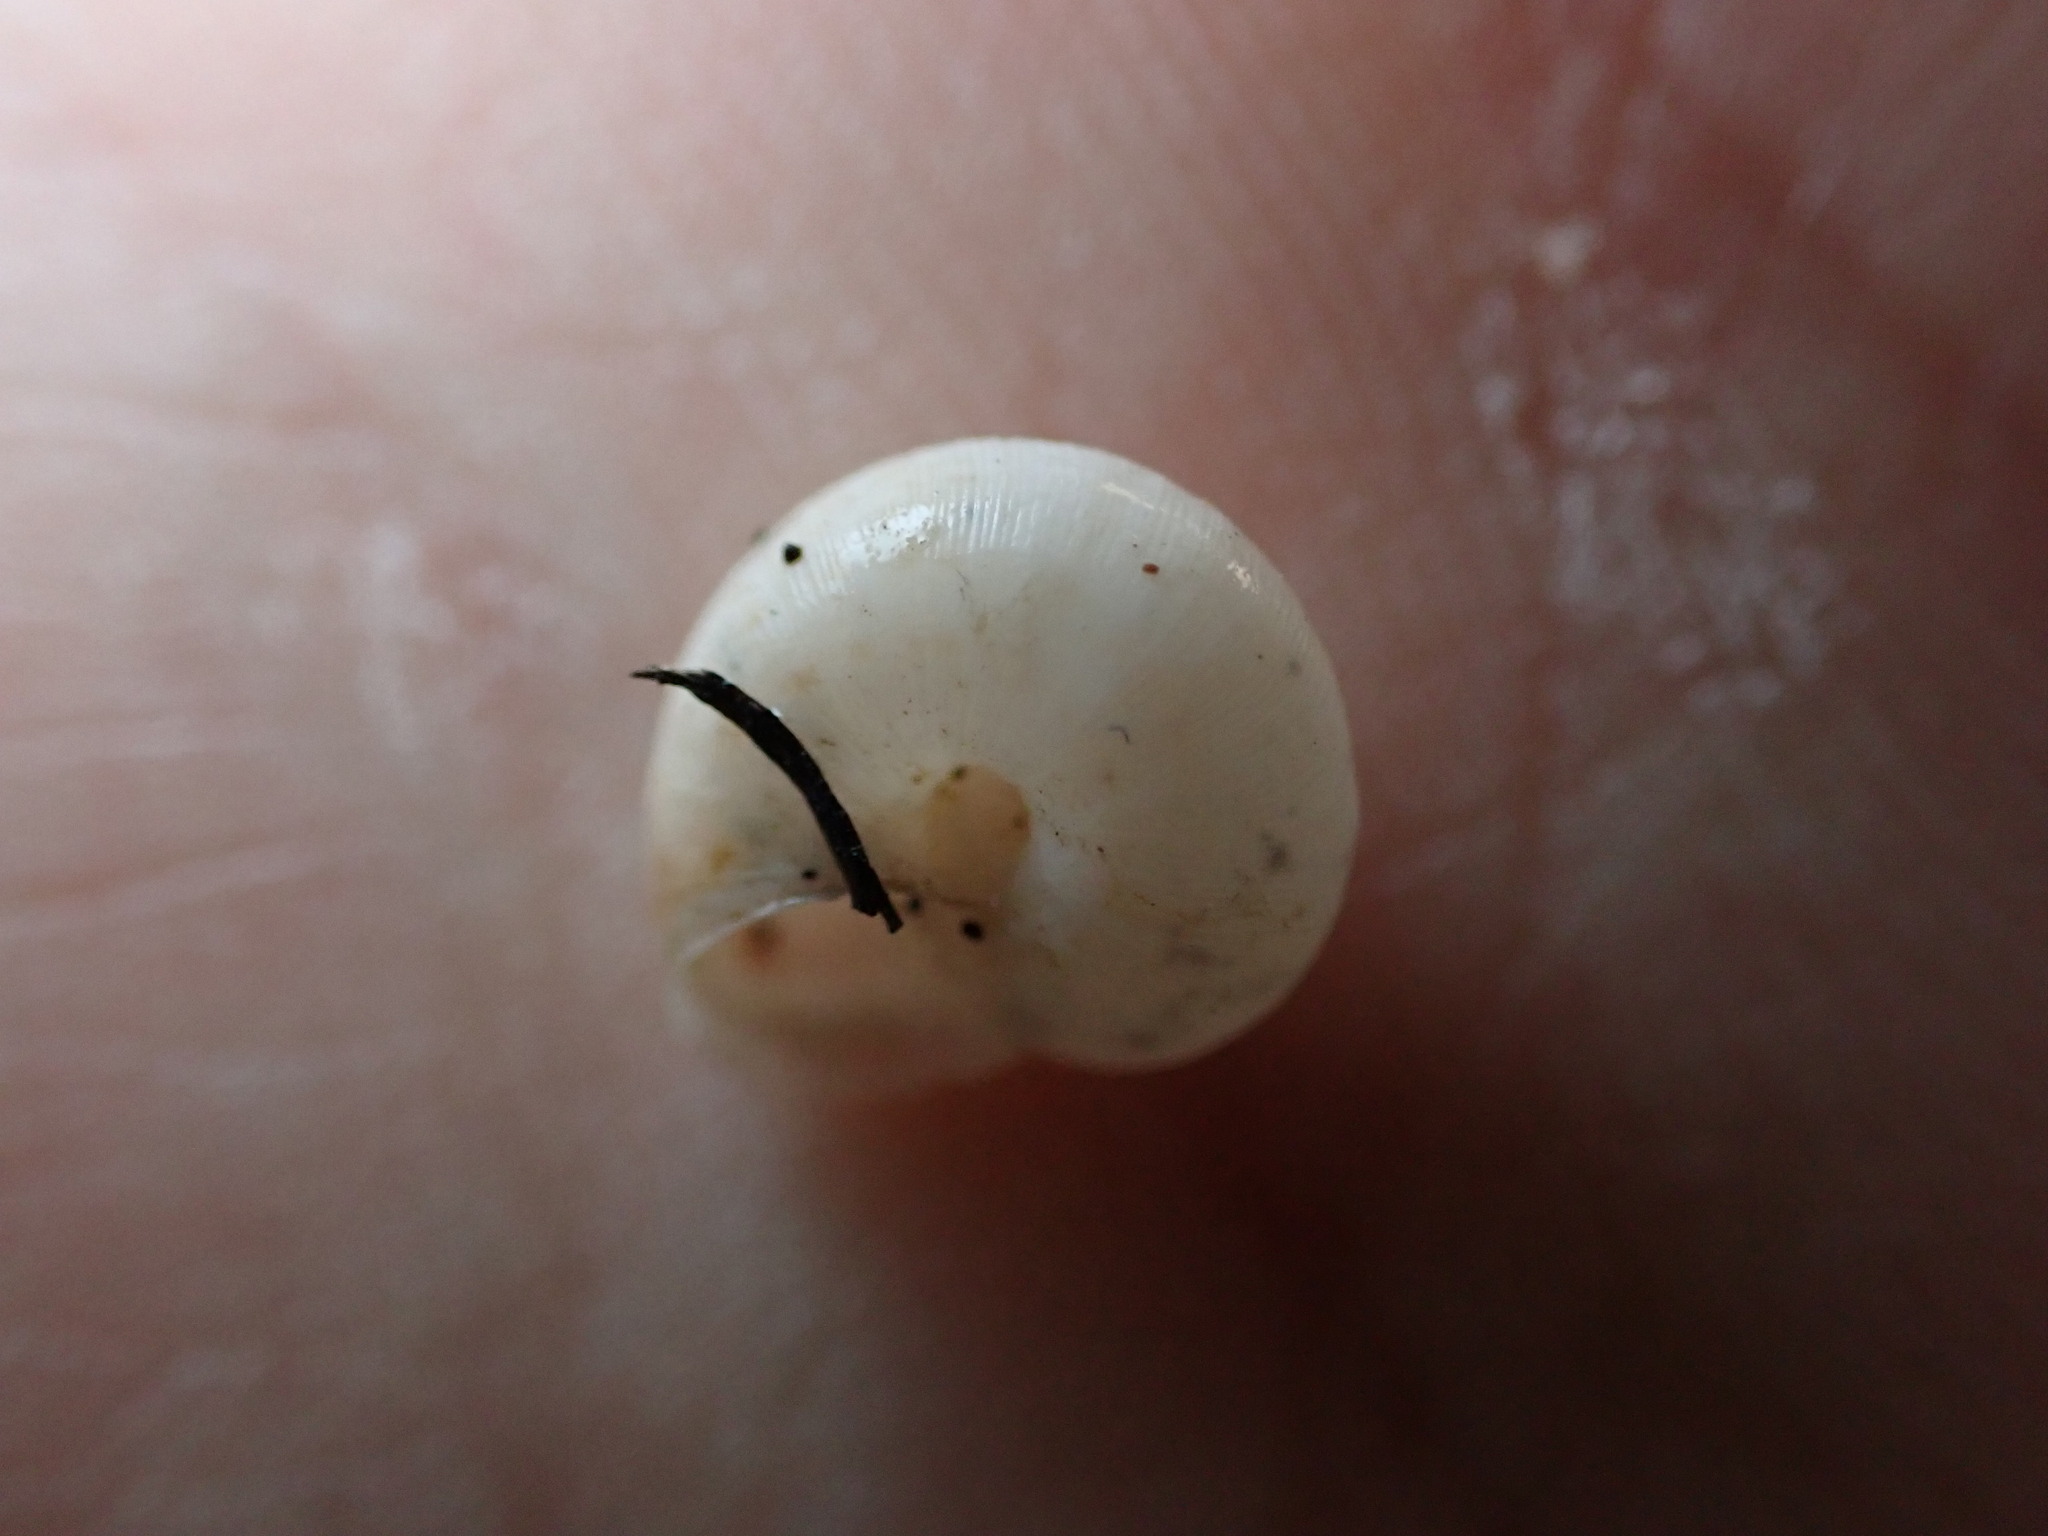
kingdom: Animalia
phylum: Mollusca
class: Gastropoda
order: Stylommatophora
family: Geomitridae
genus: Candidula
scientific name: Candidula unifasciata
